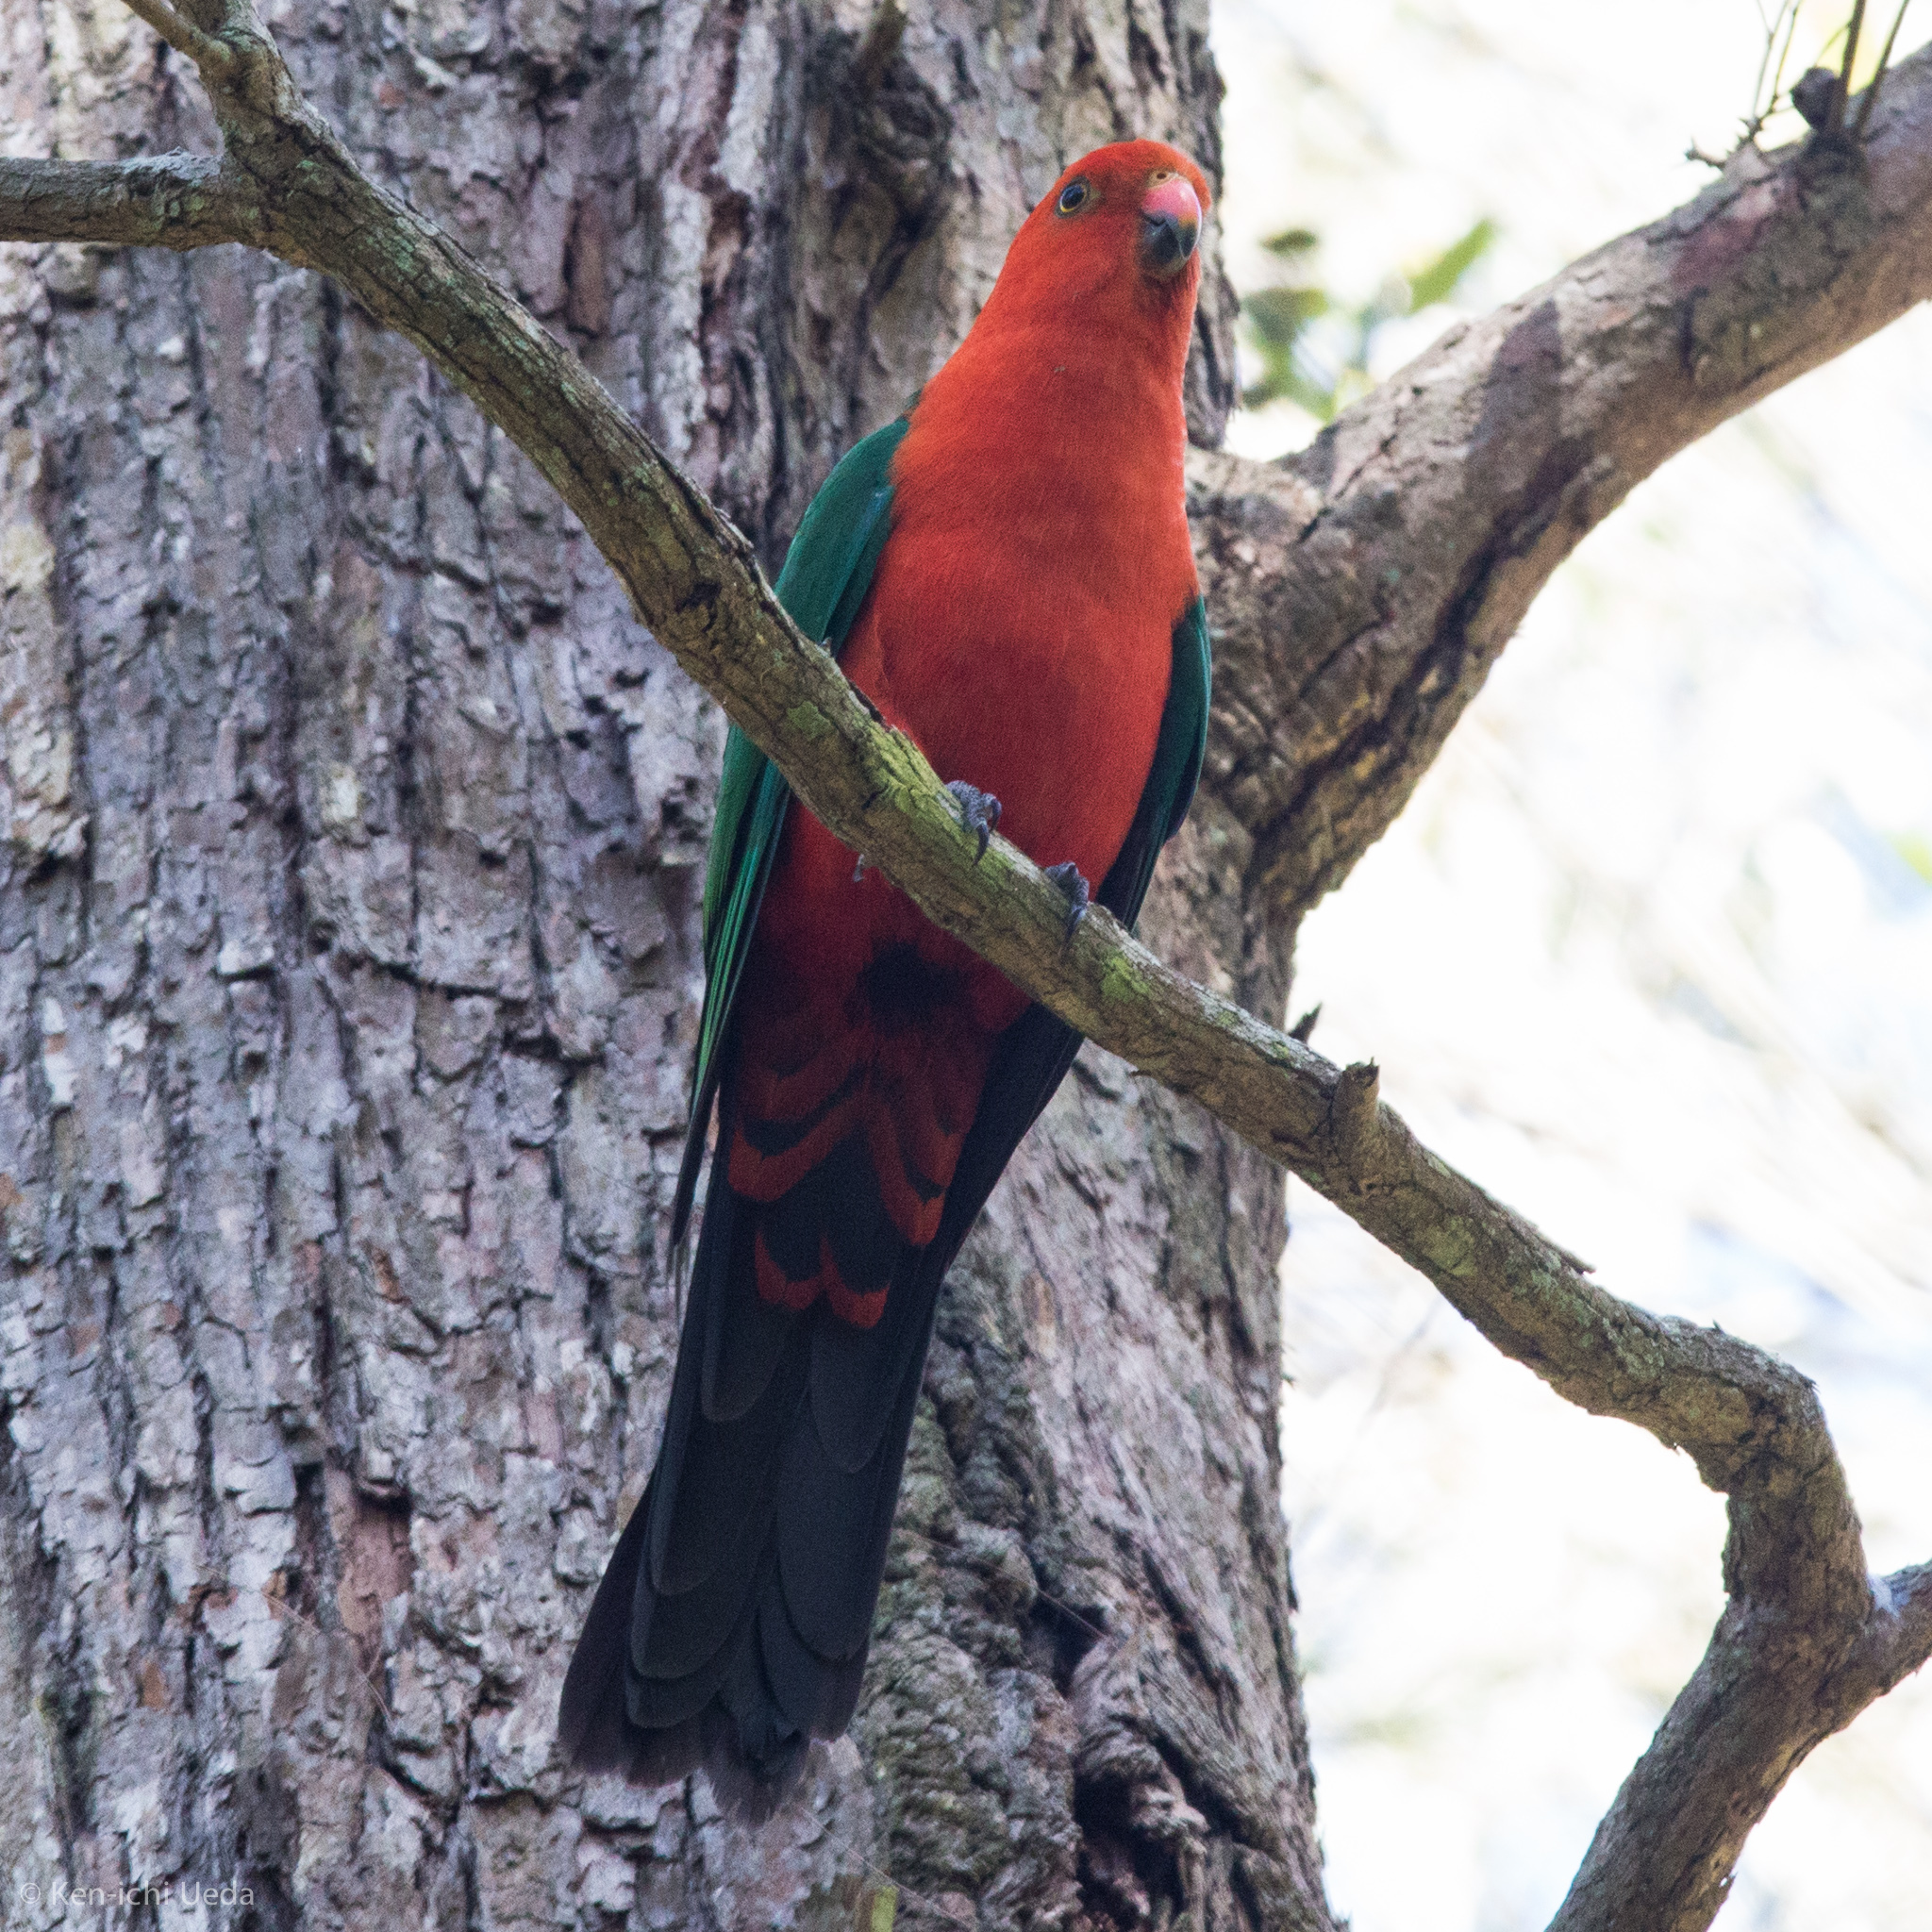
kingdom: Animalia
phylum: Chordata
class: Aves
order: Psittaciformes
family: Psittacidae
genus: Alisterus
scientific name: Alisterus scapularis
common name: Australian king parrot
